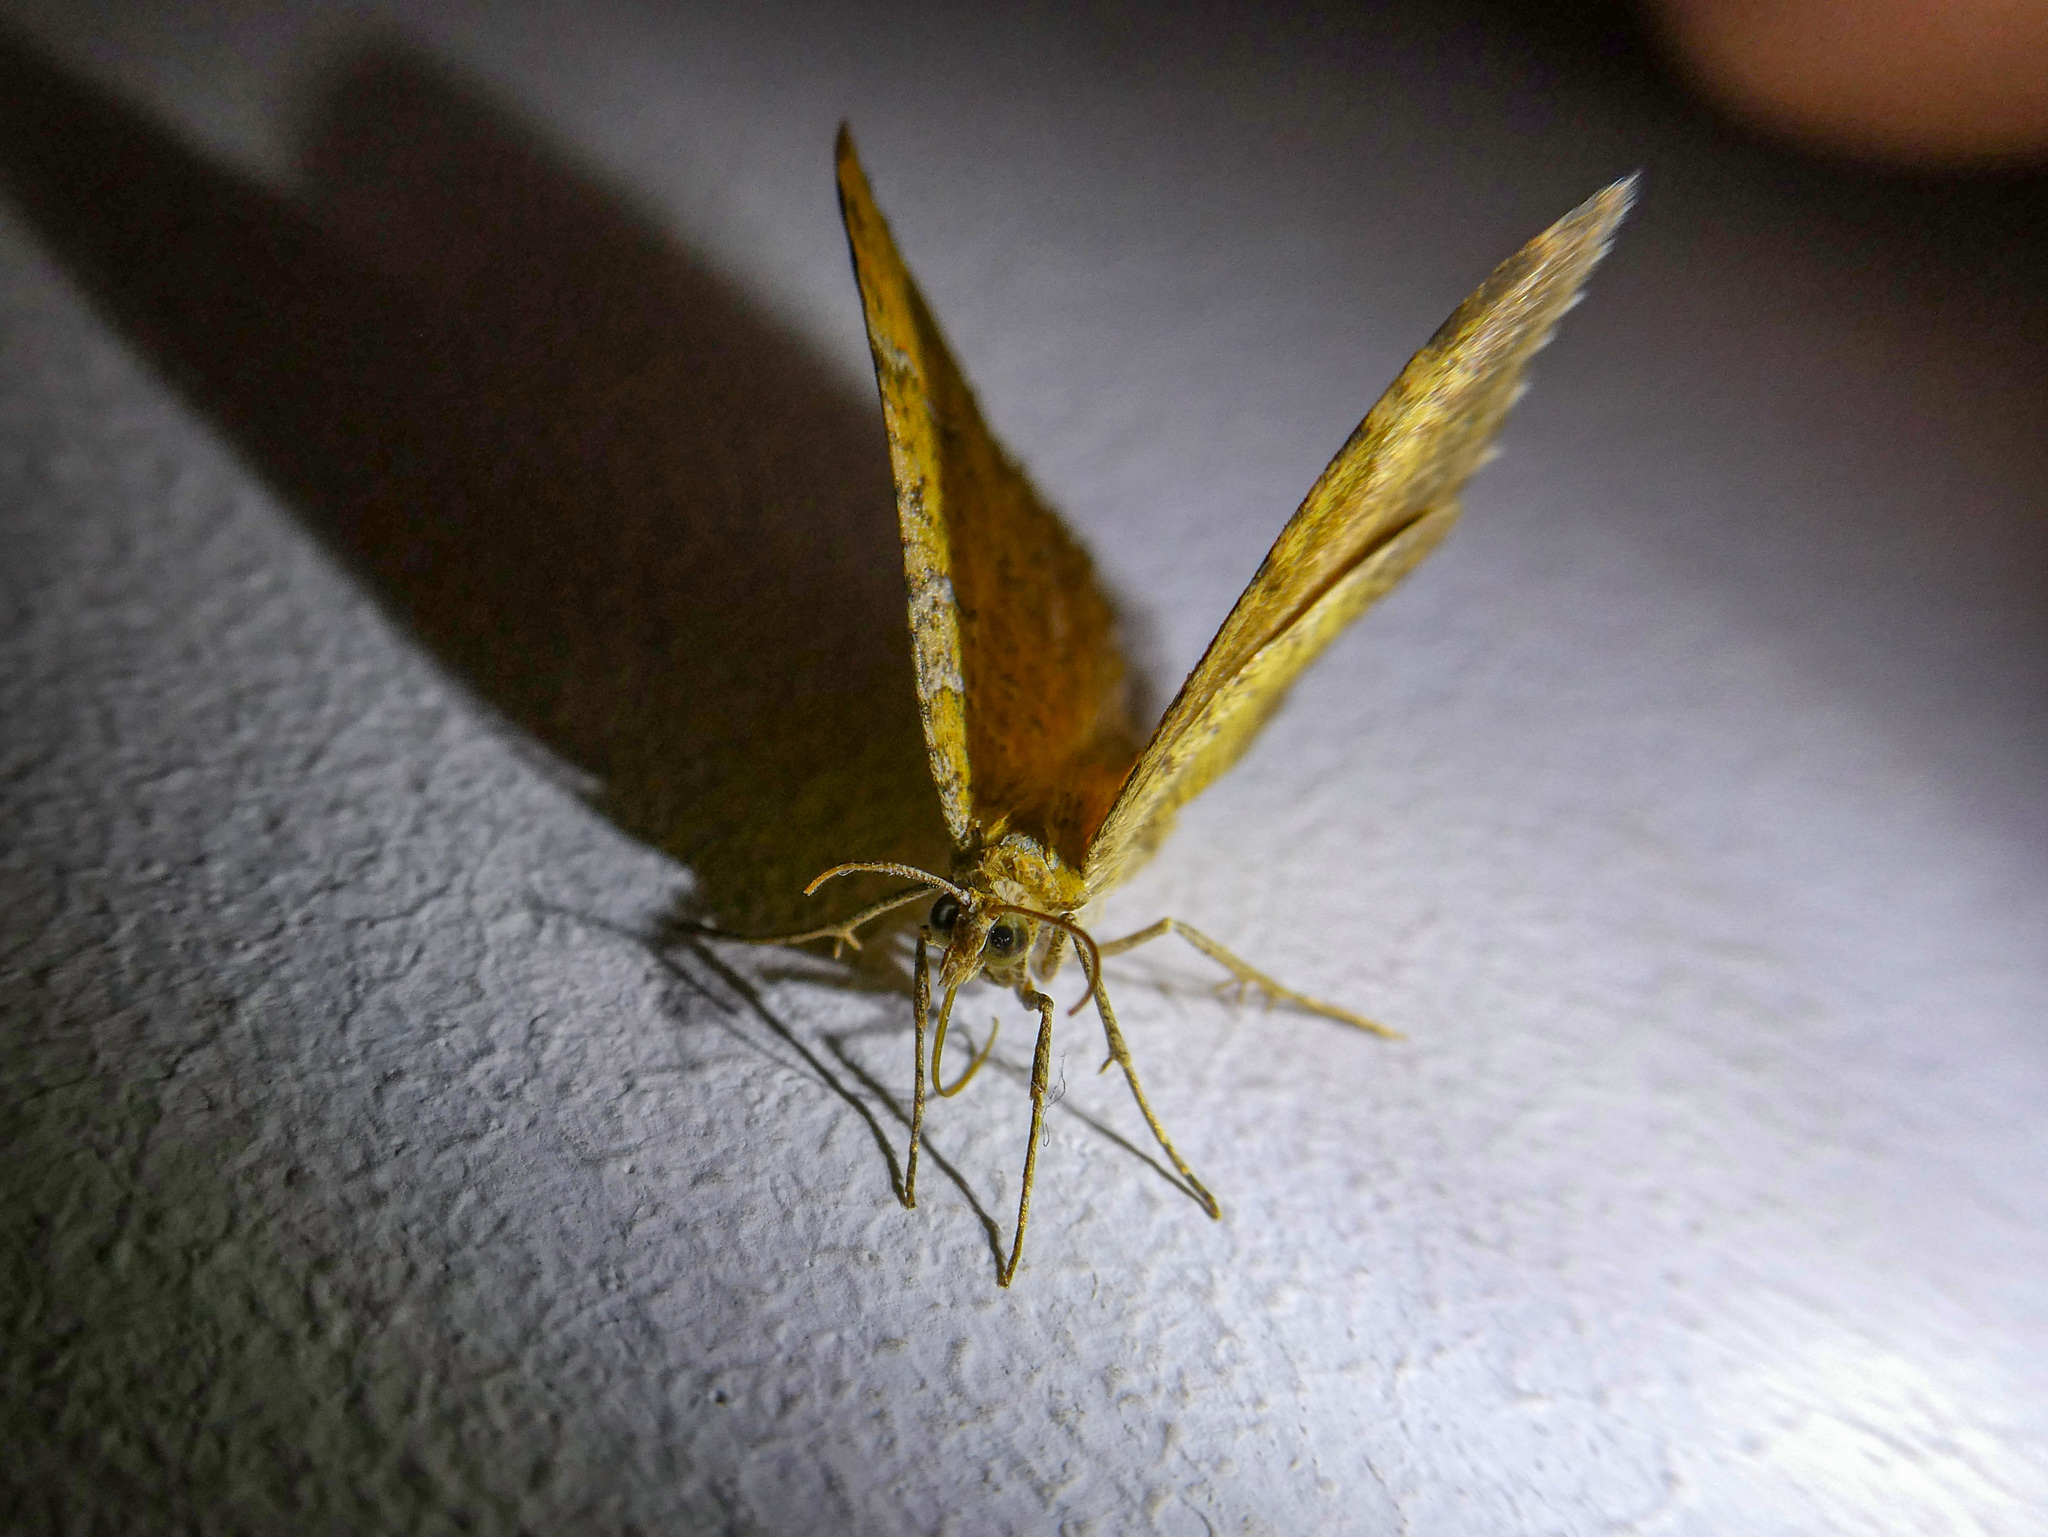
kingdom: Animalia
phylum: Arthropoda
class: Insecta
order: Lepidoptera
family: Geometridae
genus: Camptogramma
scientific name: Camptogramma bilineata
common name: Yellow shell
